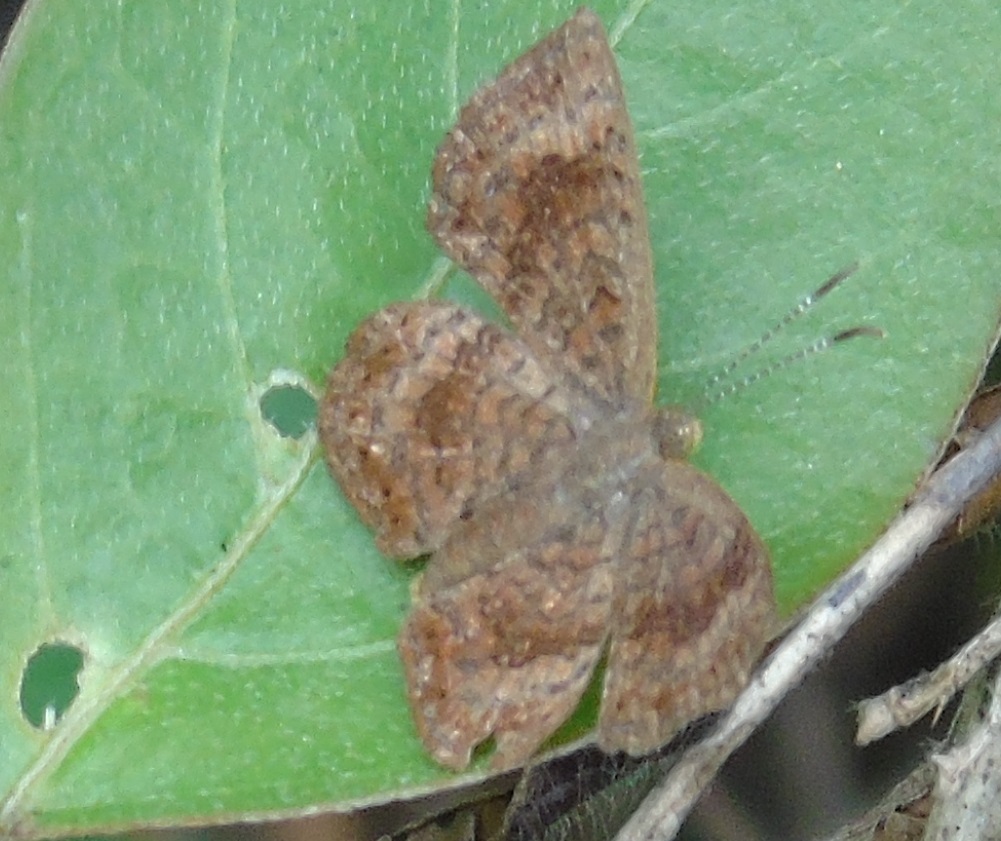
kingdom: Animalia
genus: Calephelis
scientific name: Calephelis
